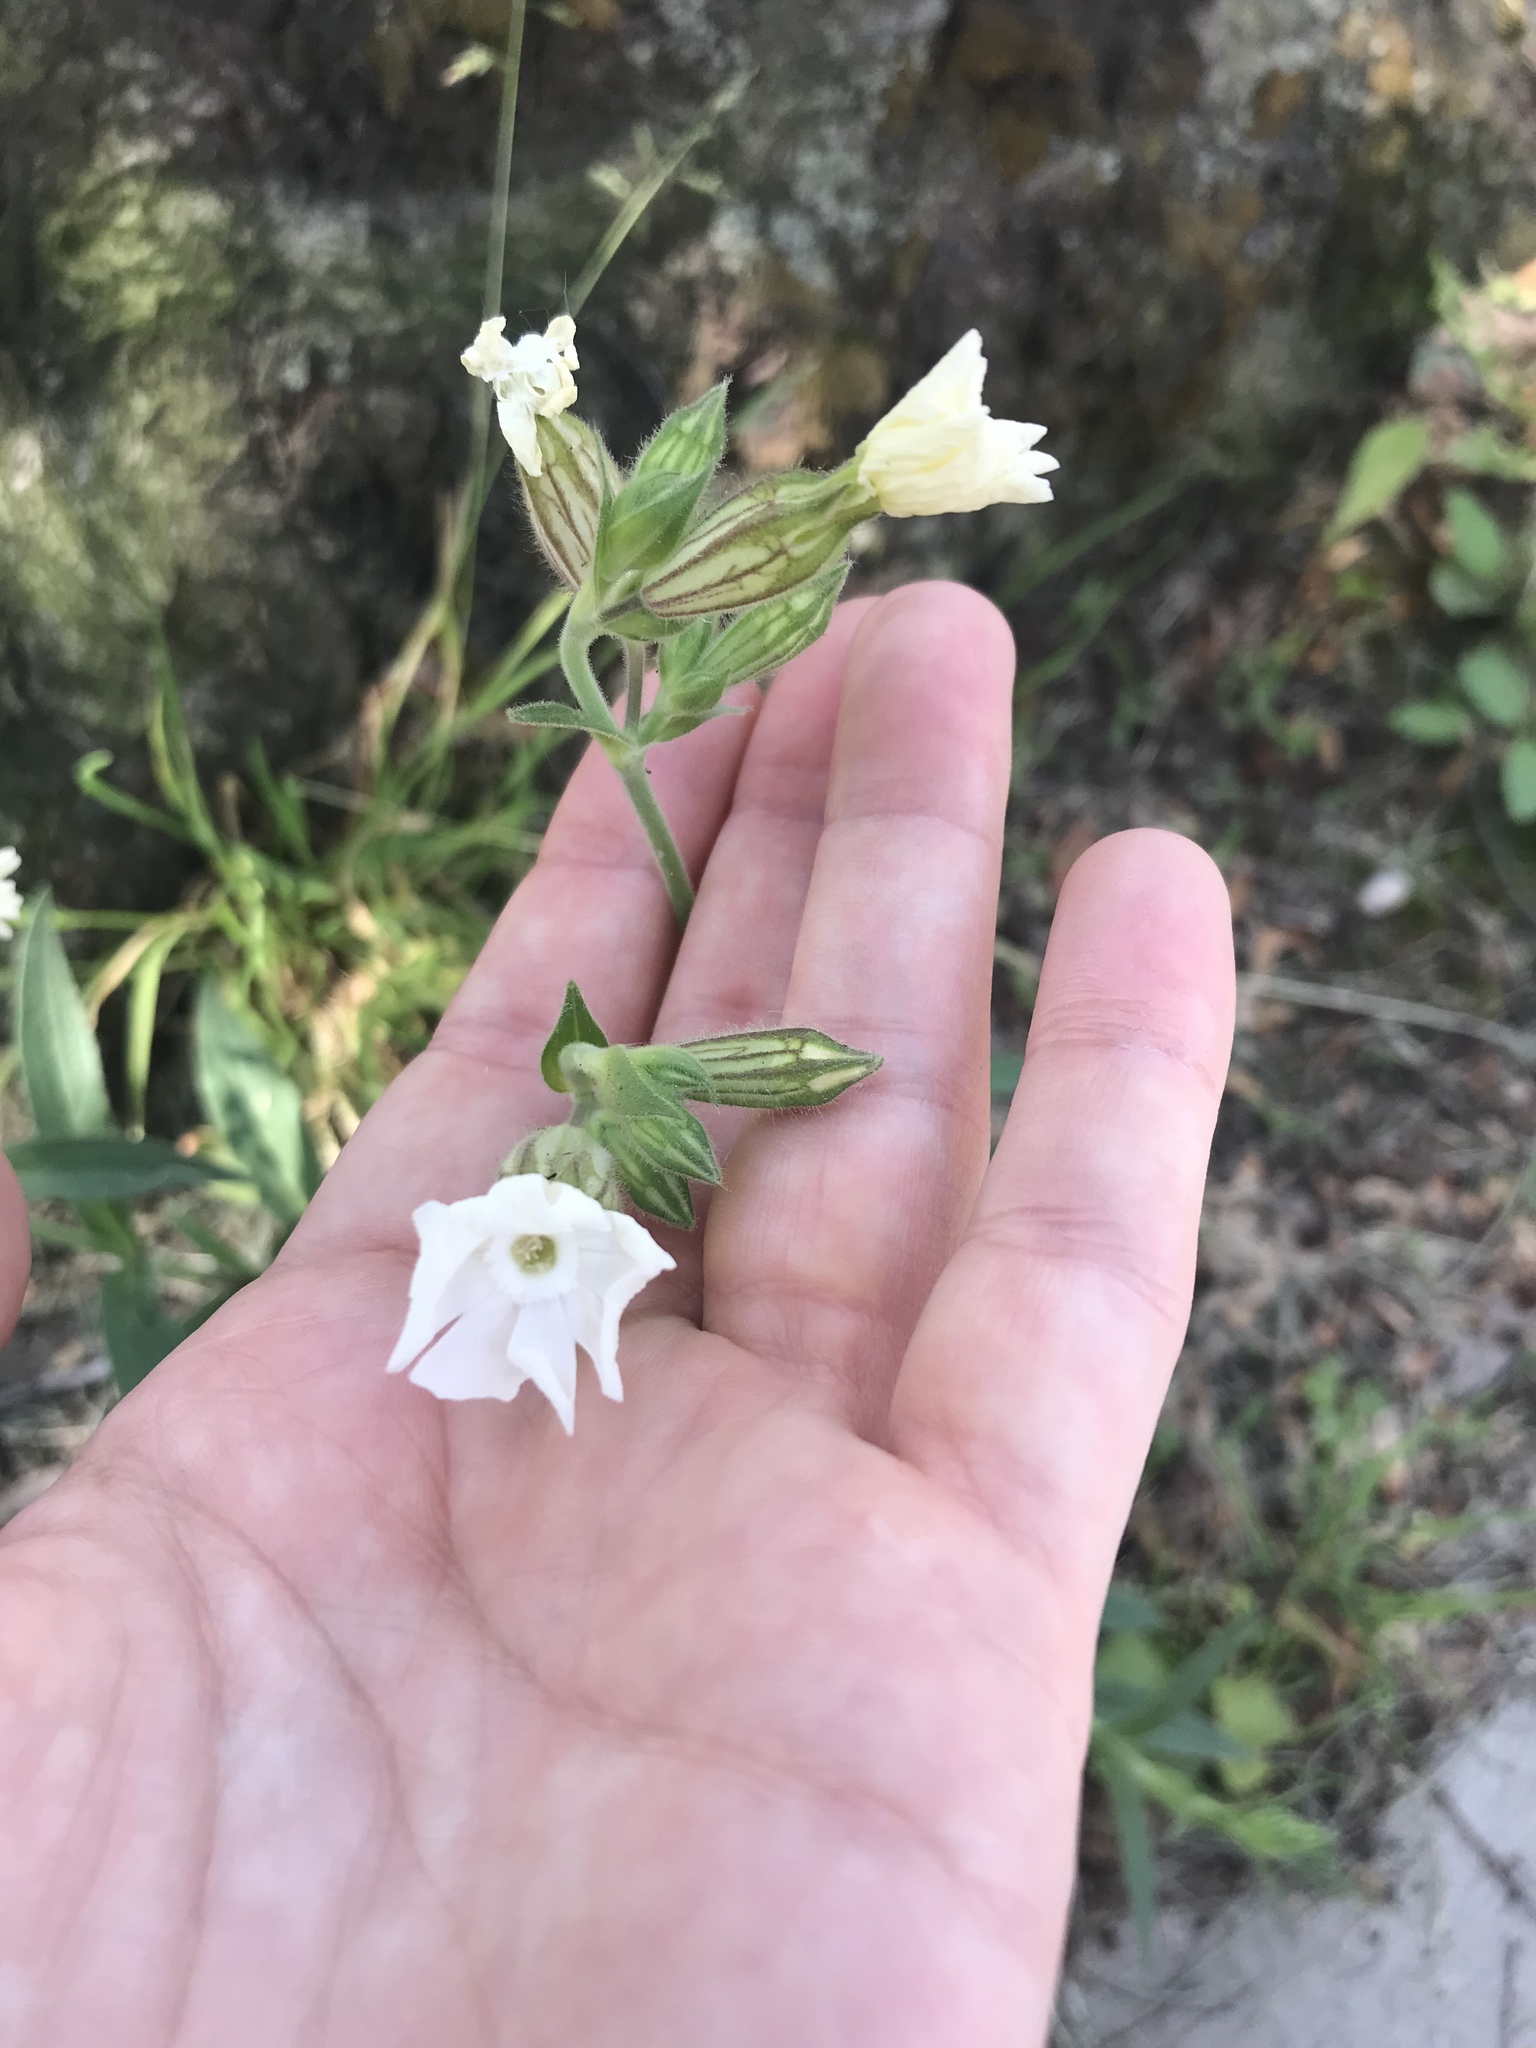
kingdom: Plantae
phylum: Tracheophyta
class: Magnoliopsida
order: Caryophyllales
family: Caryophyllaceae
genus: Silene
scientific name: Silene latifolia
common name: White campion
